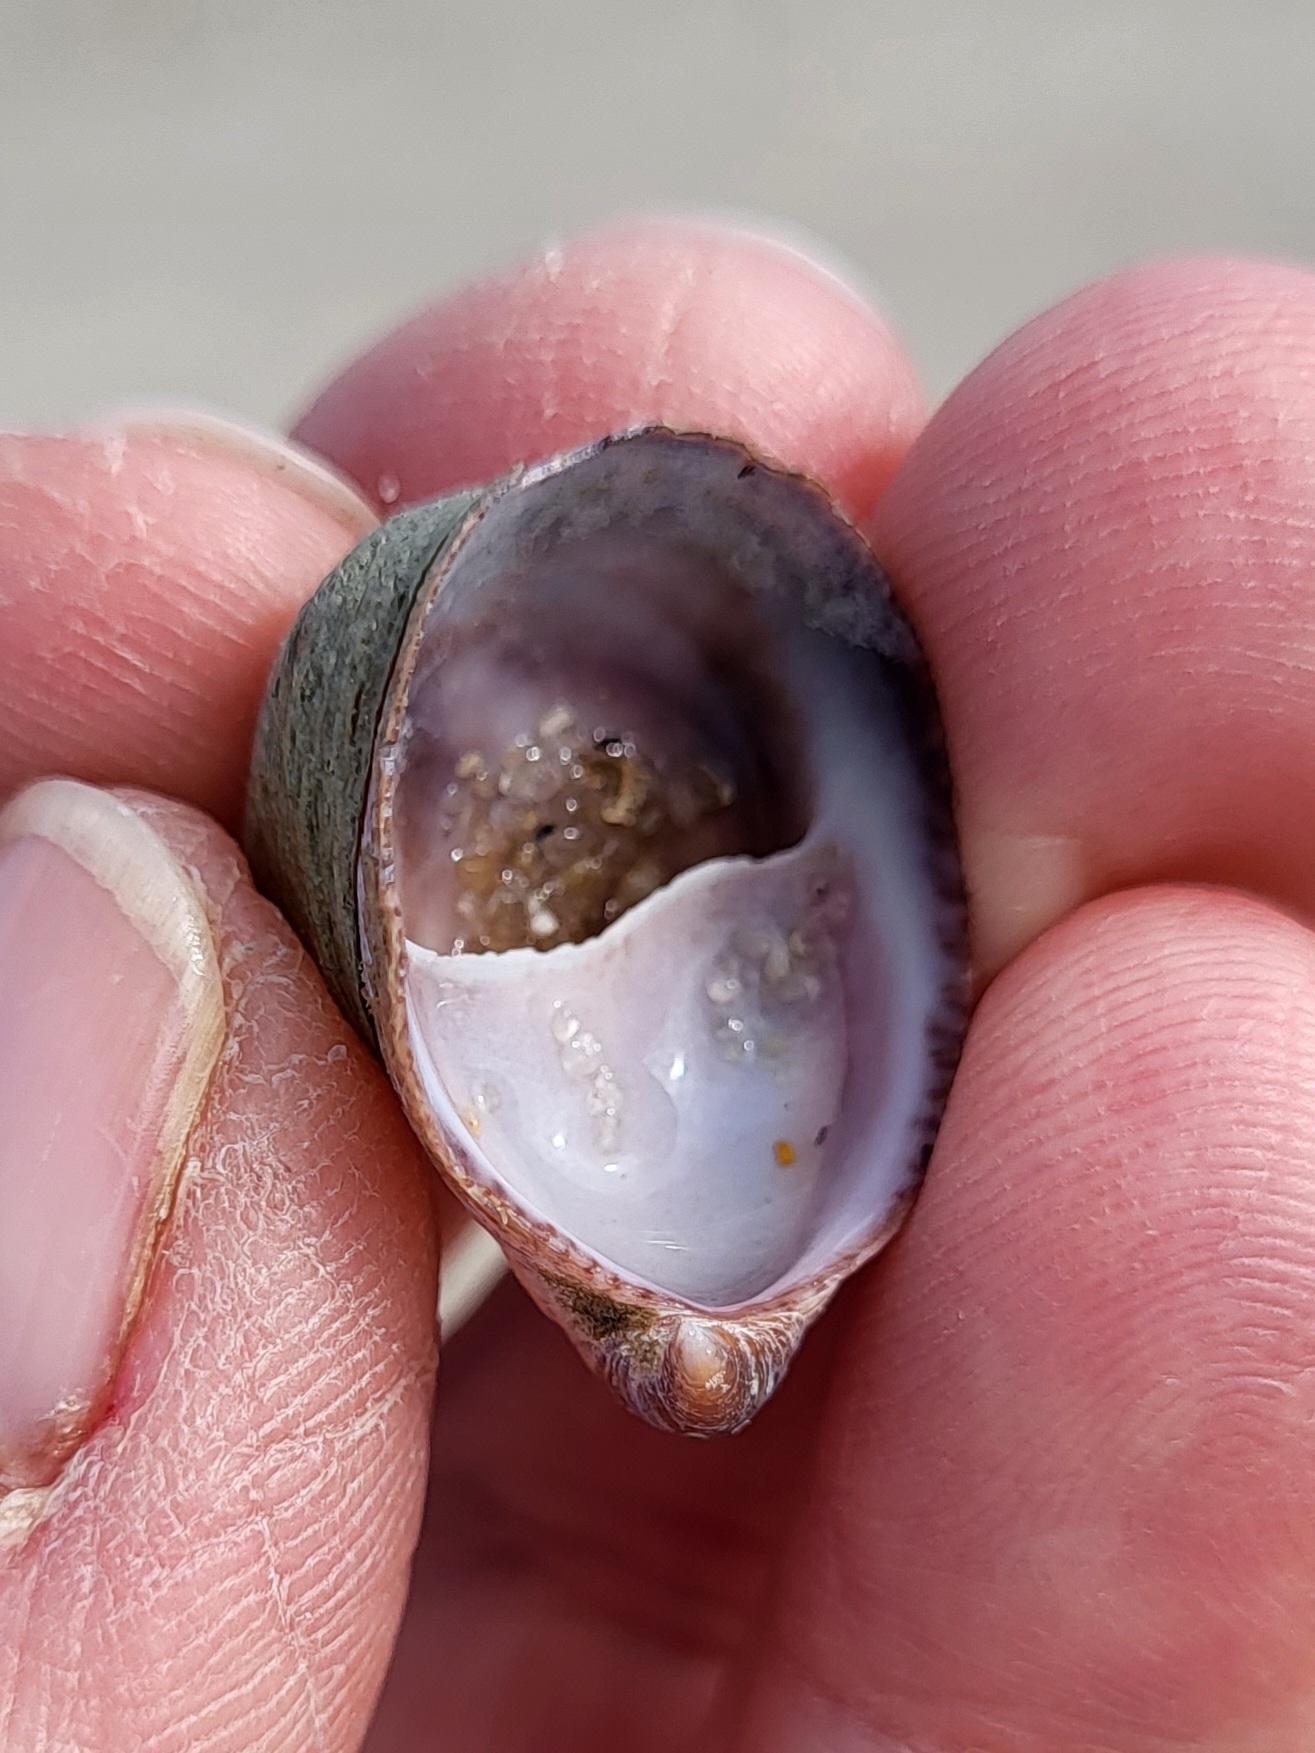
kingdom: Animalia
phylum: Mollusca
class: Gastropoda
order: Littorinimorpha
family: Calyptraeidae
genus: Crepidula
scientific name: Crepidula fornicata
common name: Slipper limpet
